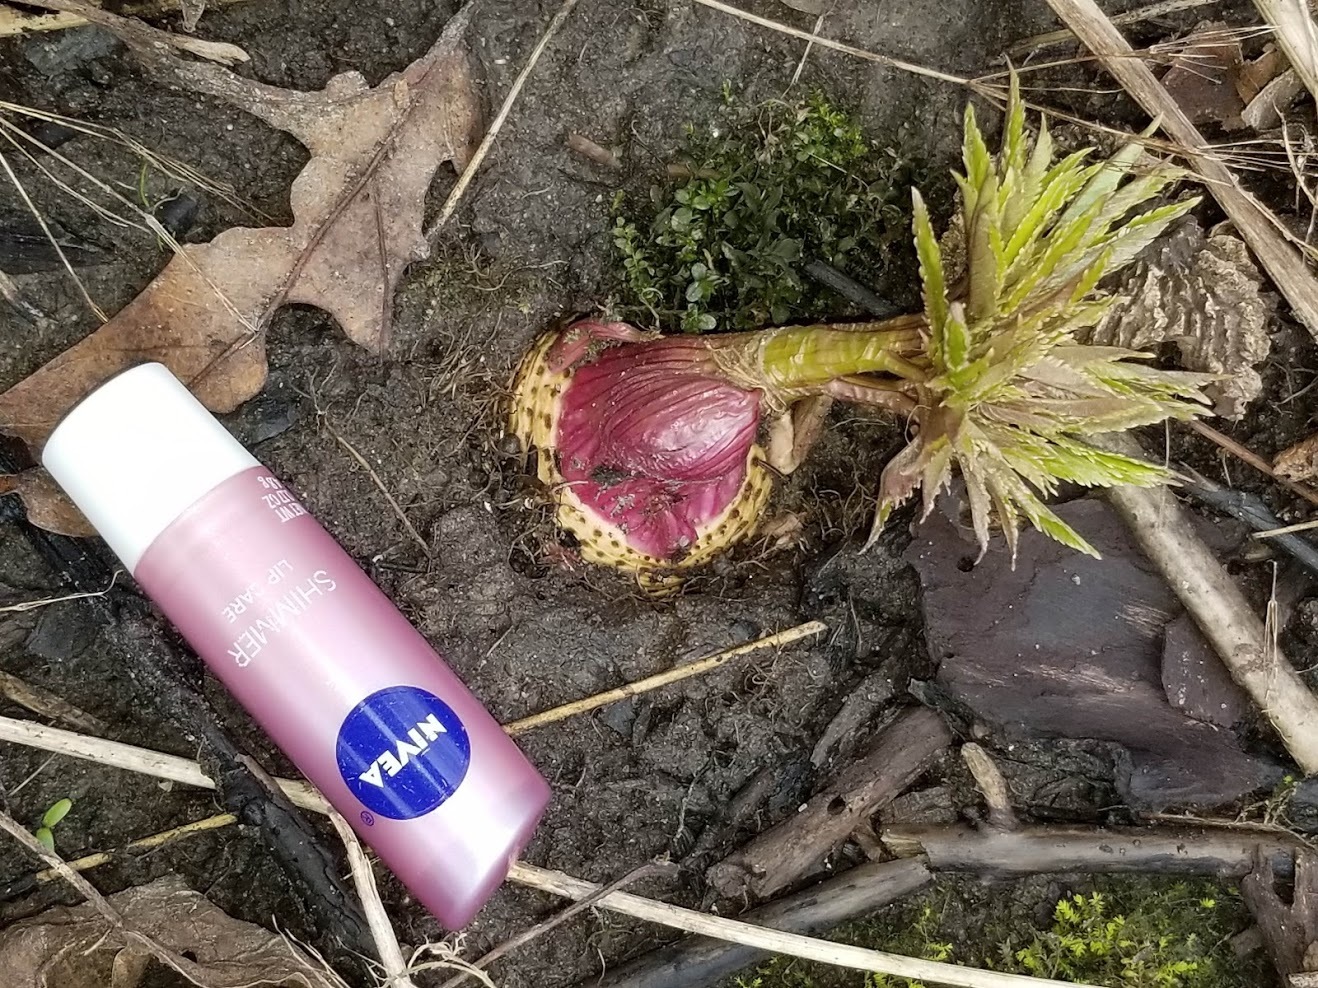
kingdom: Plantae
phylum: Tracheophyta
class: Magnoliopsida
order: Apiales
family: Apiaceae
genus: Angelica
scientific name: Angelica atropurpurea
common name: Great angelica
